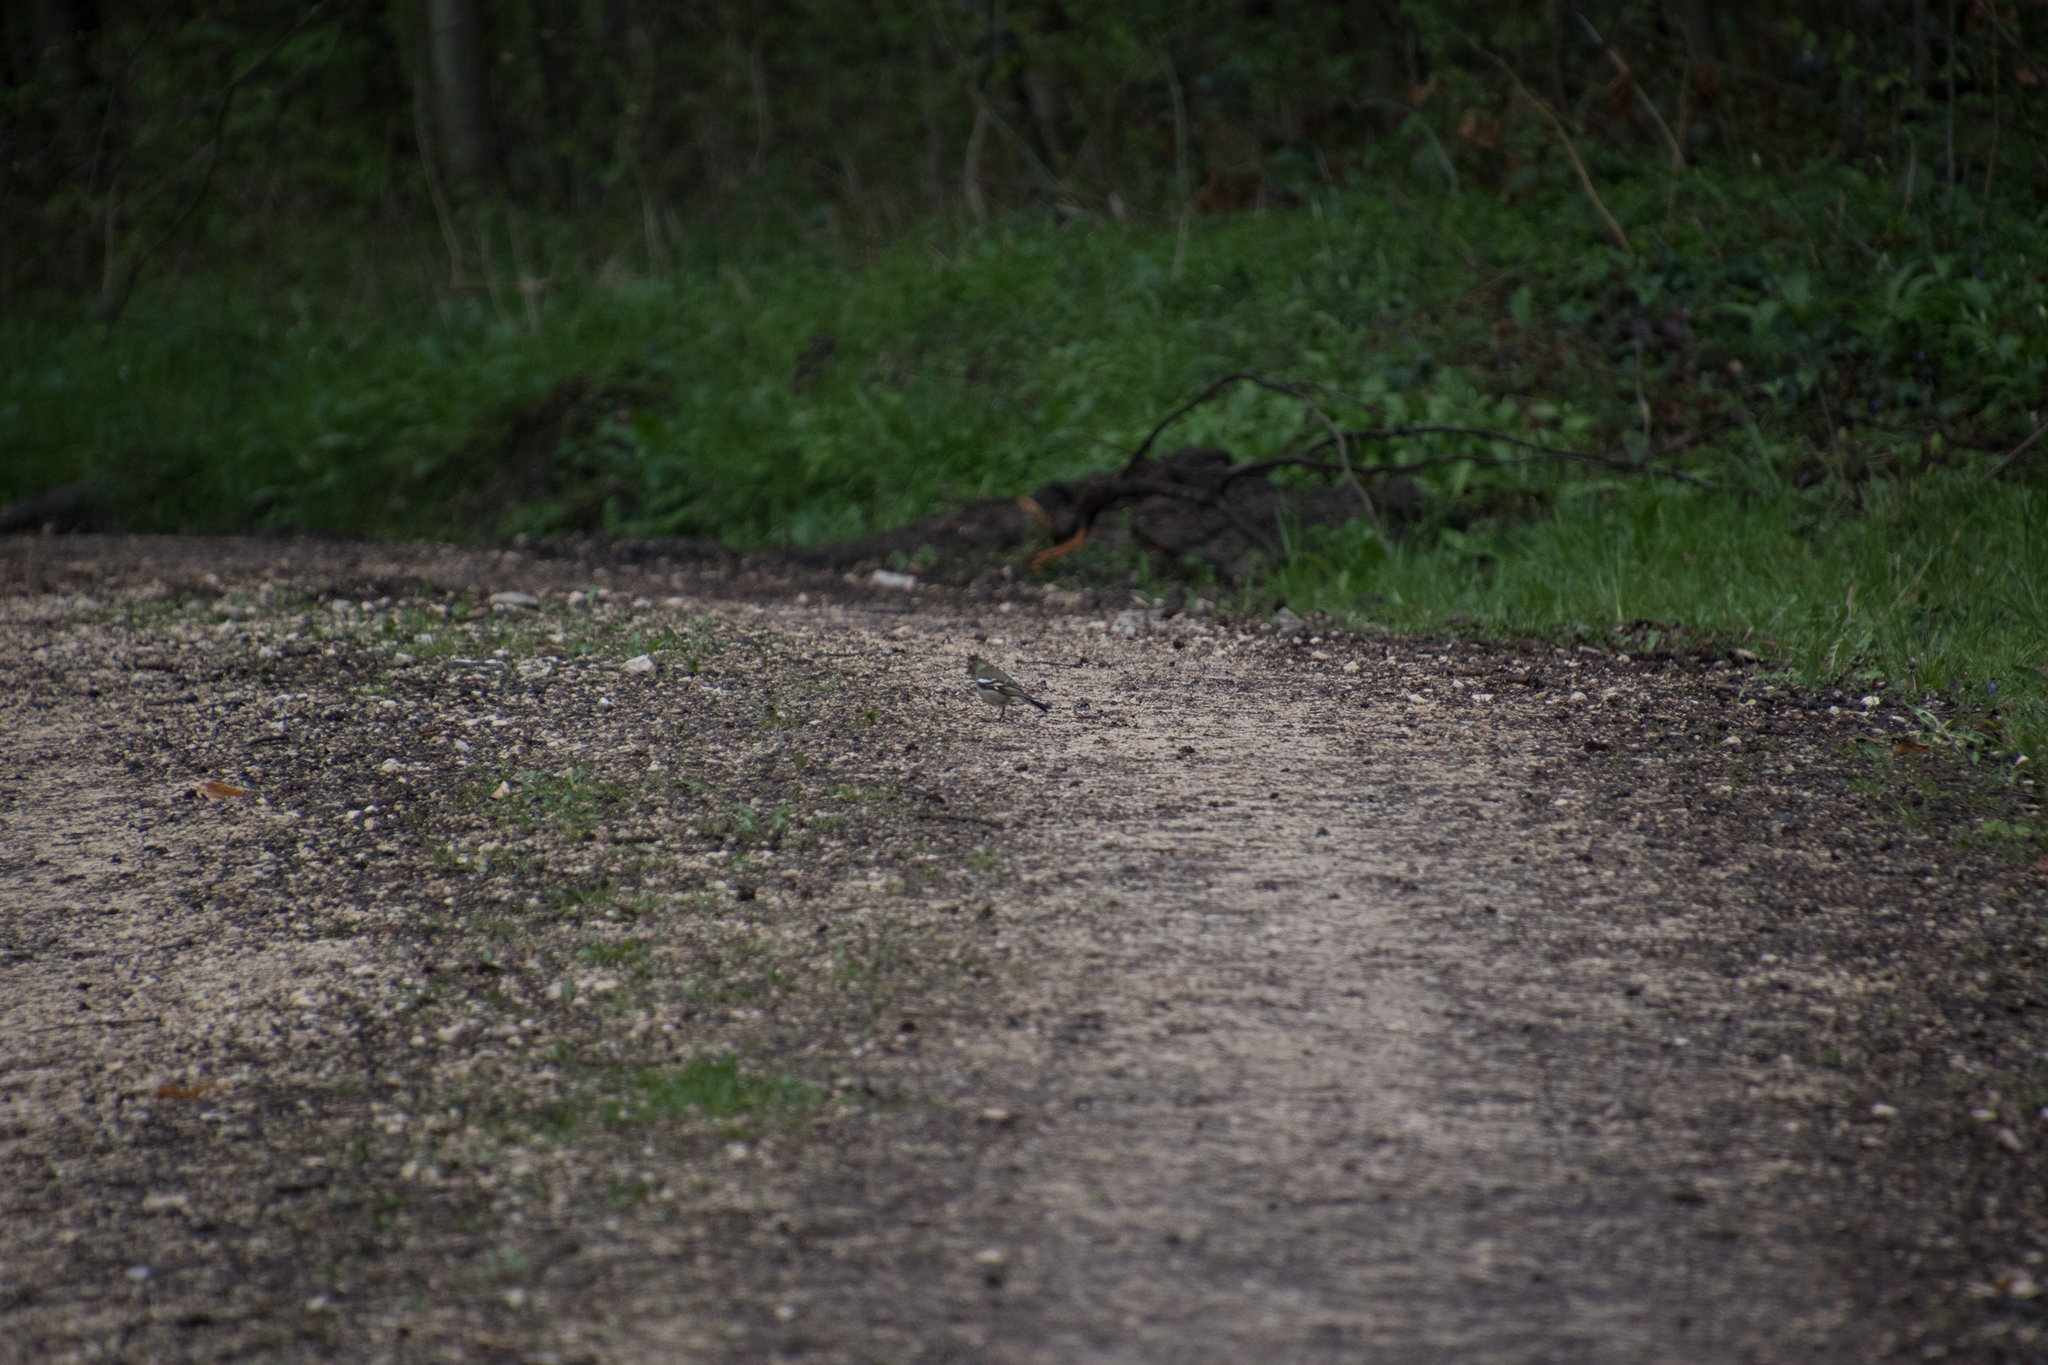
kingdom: Animalia
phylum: Chordata
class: Aves
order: Passeriformes
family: Fringillidae
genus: Fringilla
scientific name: Fringilla coelebs
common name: Common chaffinch
